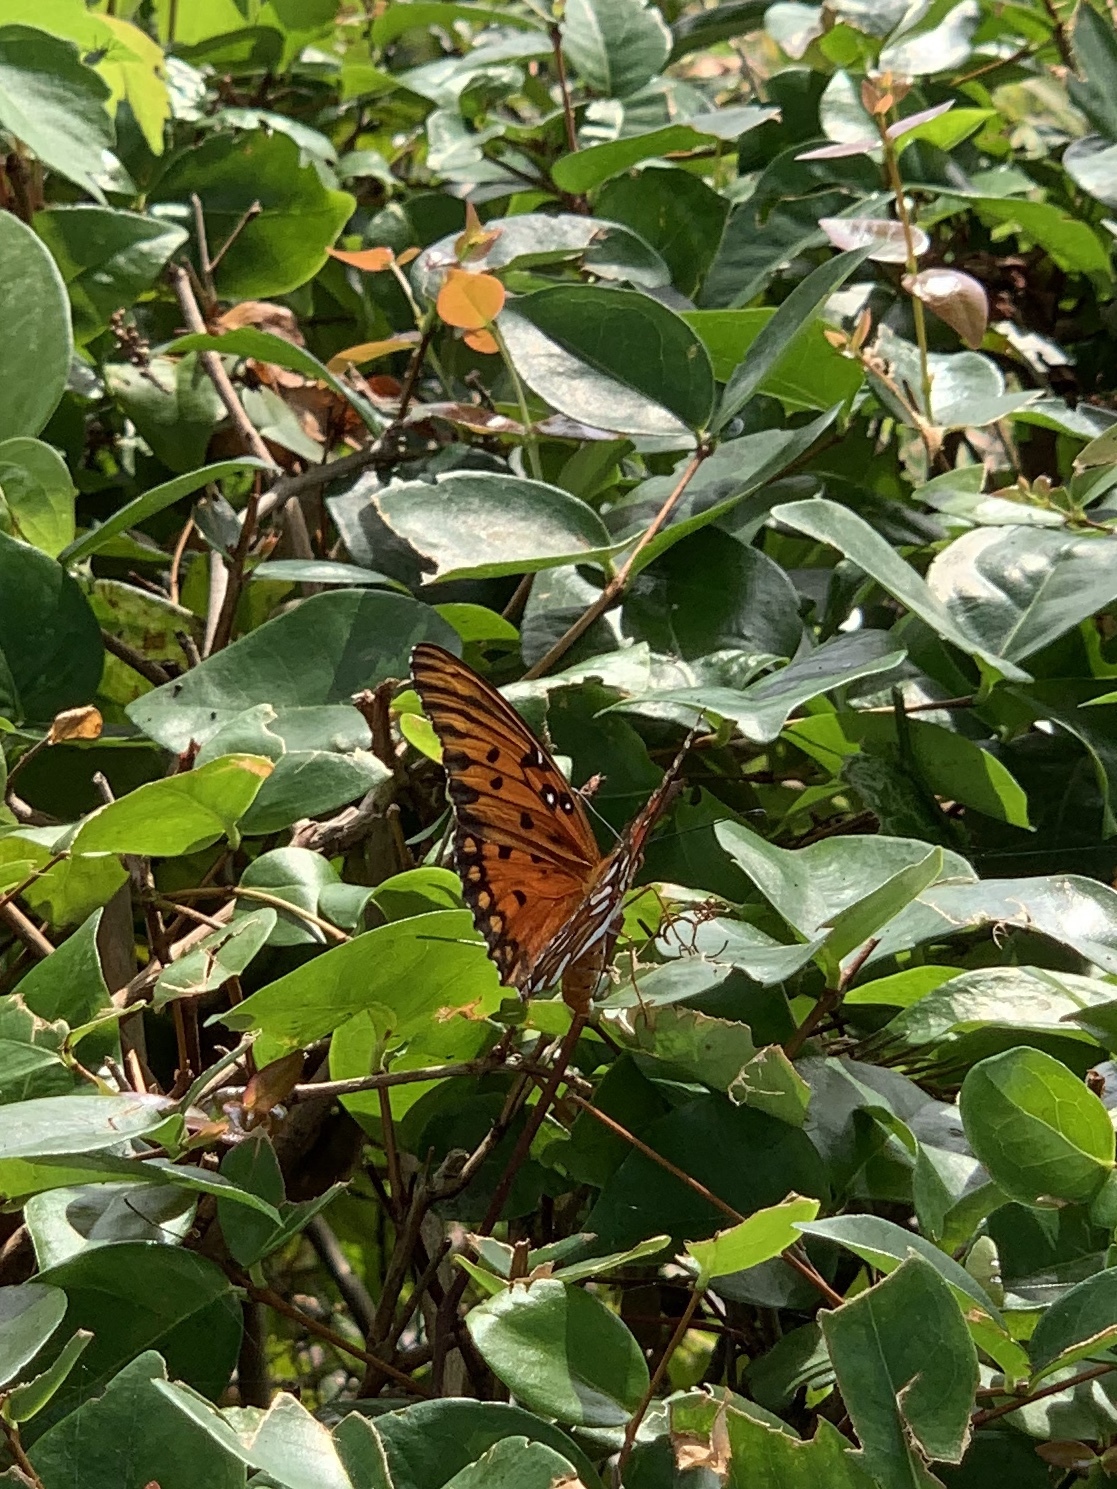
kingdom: Animalia
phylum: Arthropoda
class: Insecta
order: Lepidoptera
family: Nymphalidae
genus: Dione
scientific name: Dione vanillae
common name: Gulf fritillary
